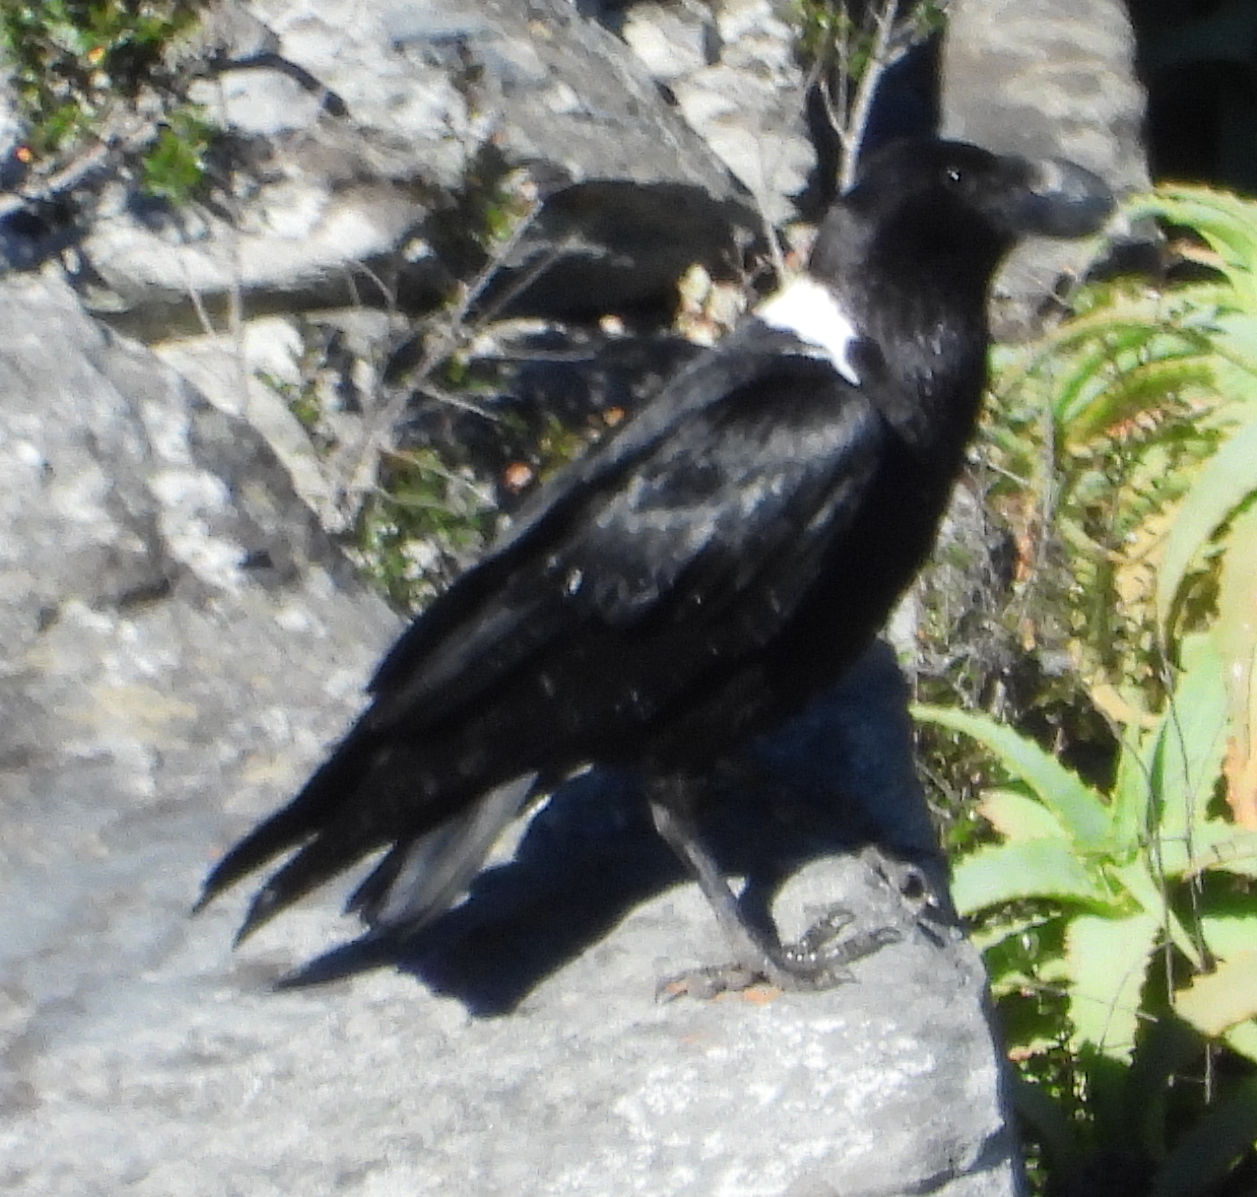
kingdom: Animalia
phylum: Chordata
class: Aves
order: Passeriformes
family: Corvidae
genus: Corvus
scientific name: Corvus albicollis
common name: White-necked raven
